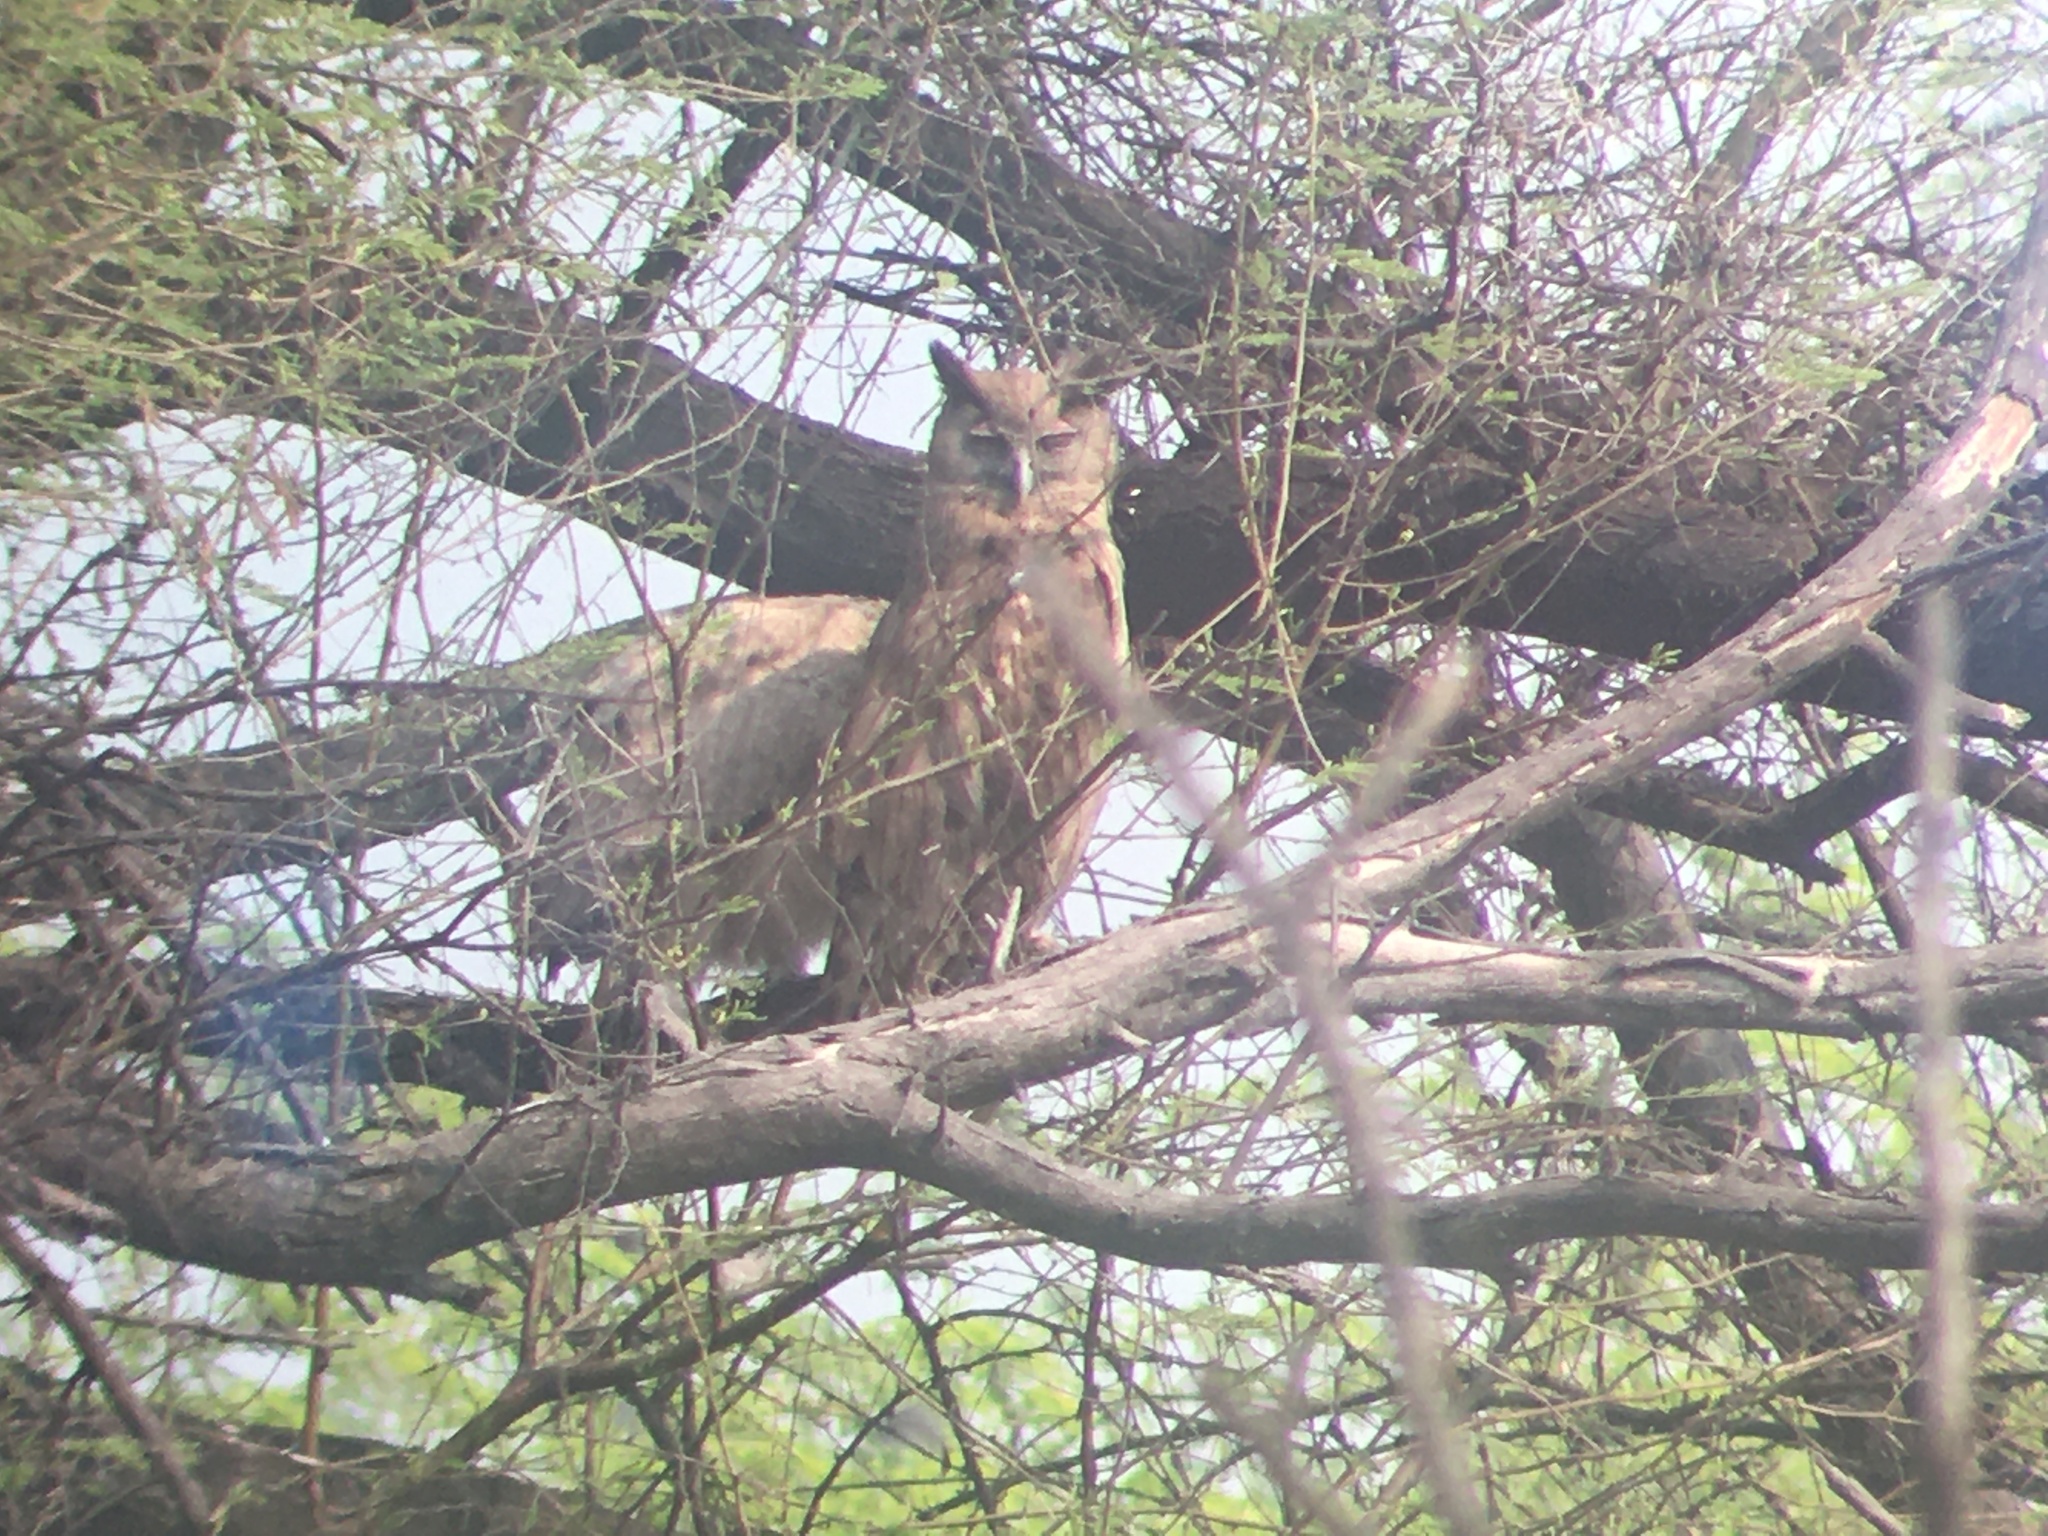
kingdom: Animalia
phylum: Chordata
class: Aves
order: Strigiformes
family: Strigidae
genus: Ketupa
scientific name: Ketupa coromanda
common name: Dusky eagle-owl
